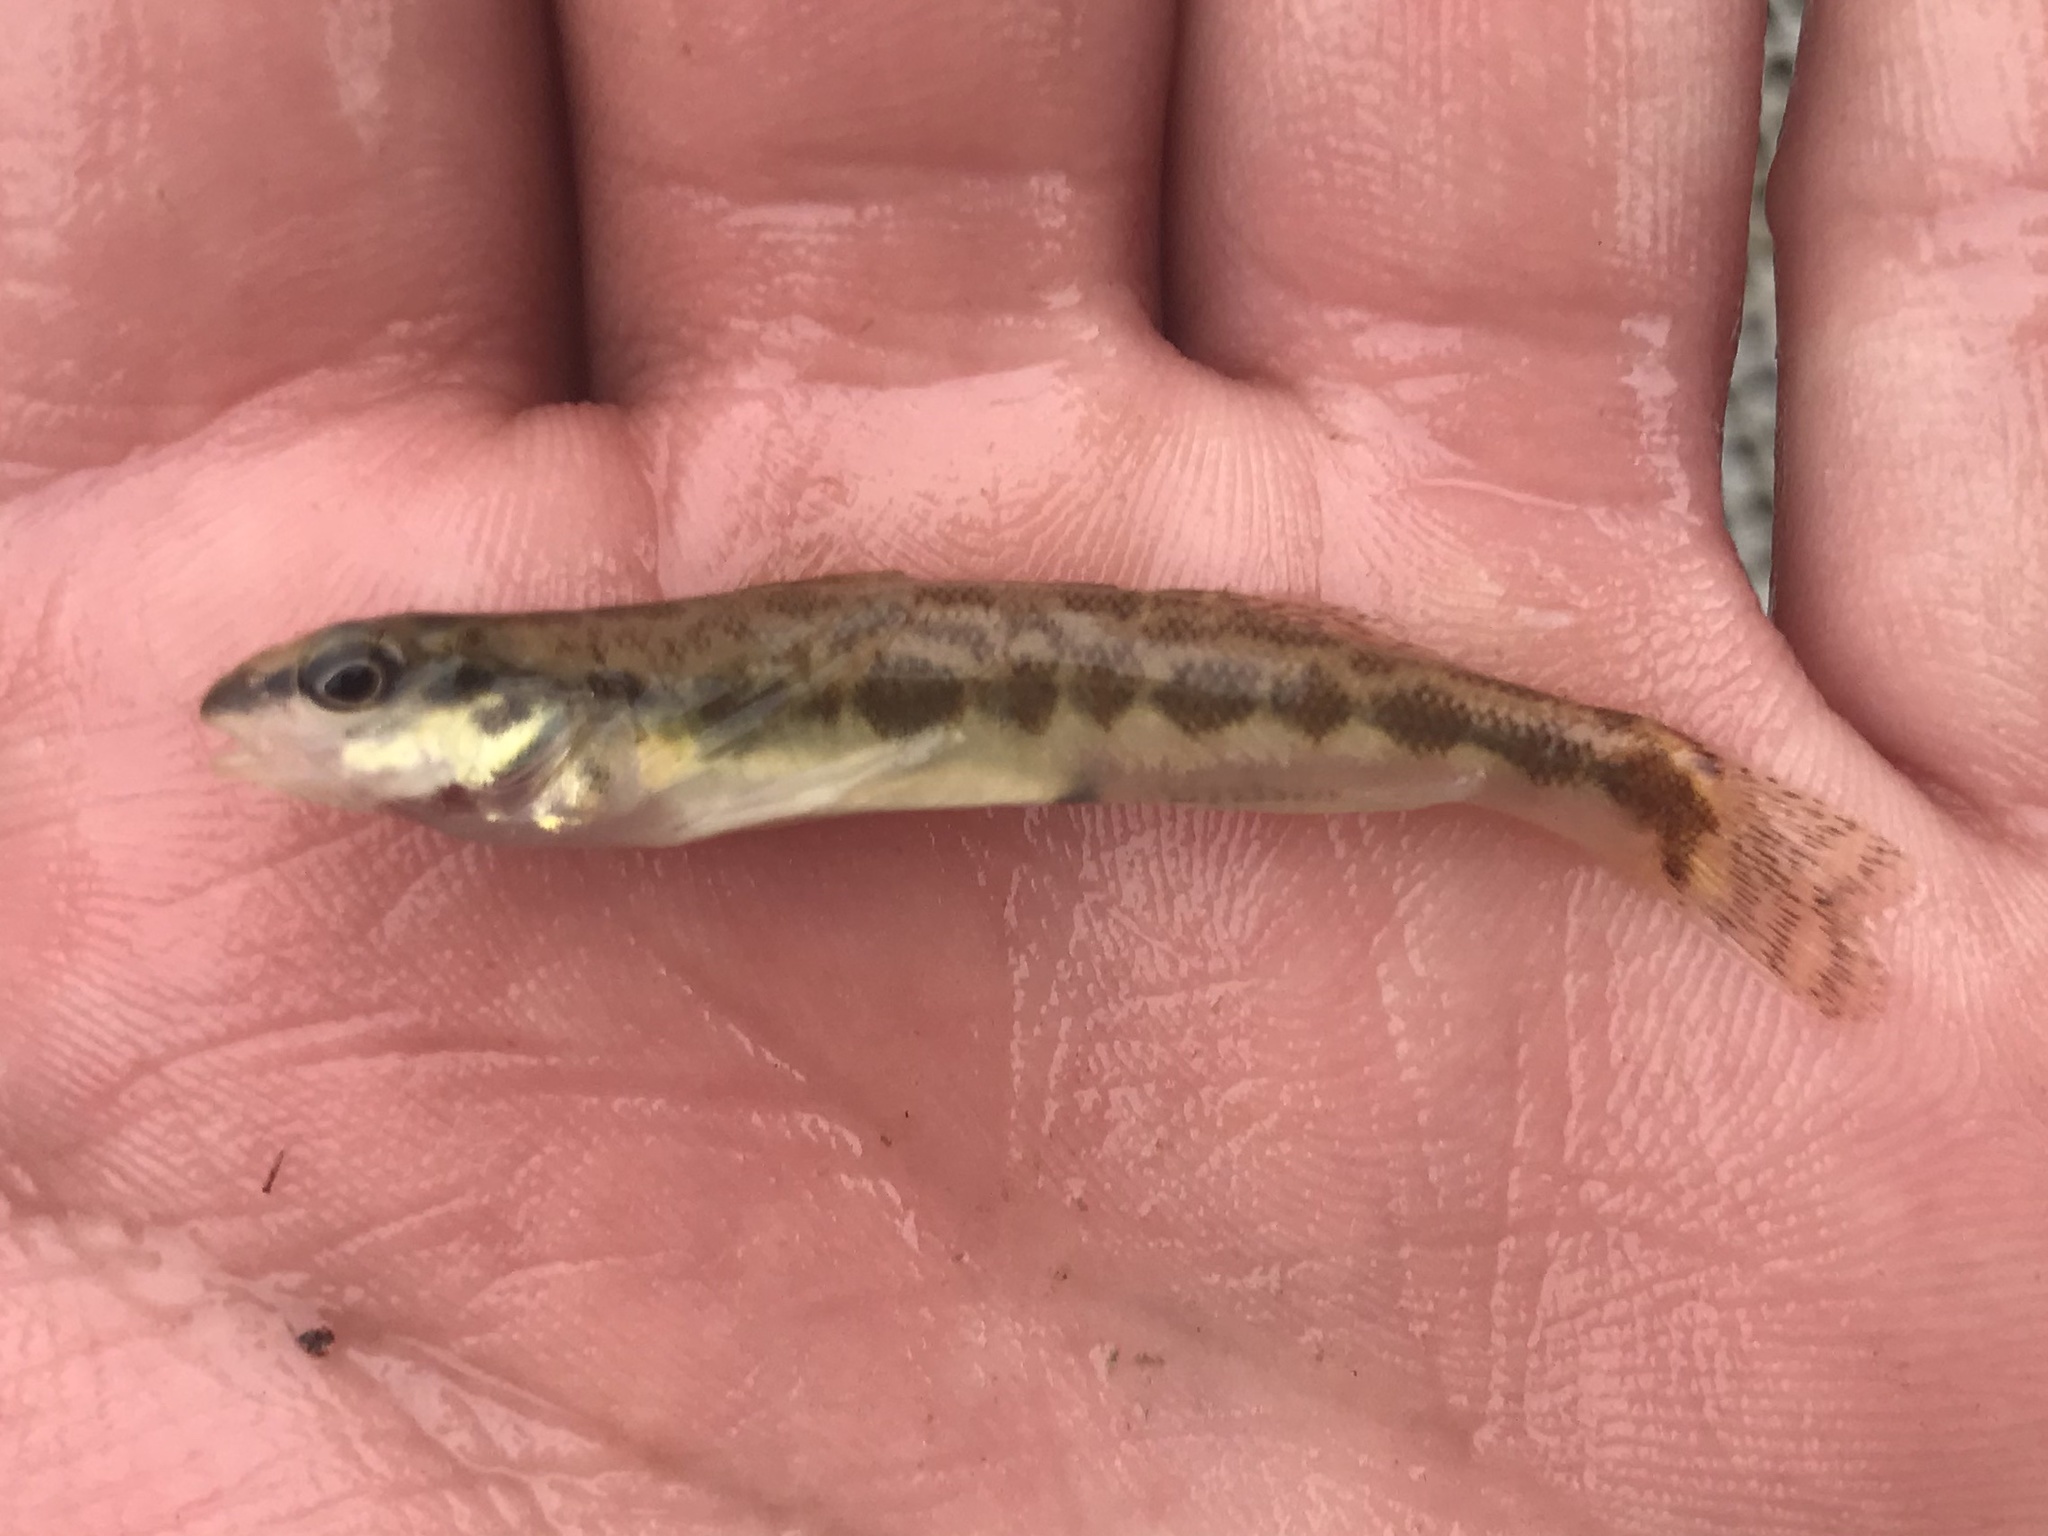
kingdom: Animalia
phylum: Chordata
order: Perciformes
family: Percidae
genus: Percina
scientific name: Percina apristis
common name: Guadalupe darter
